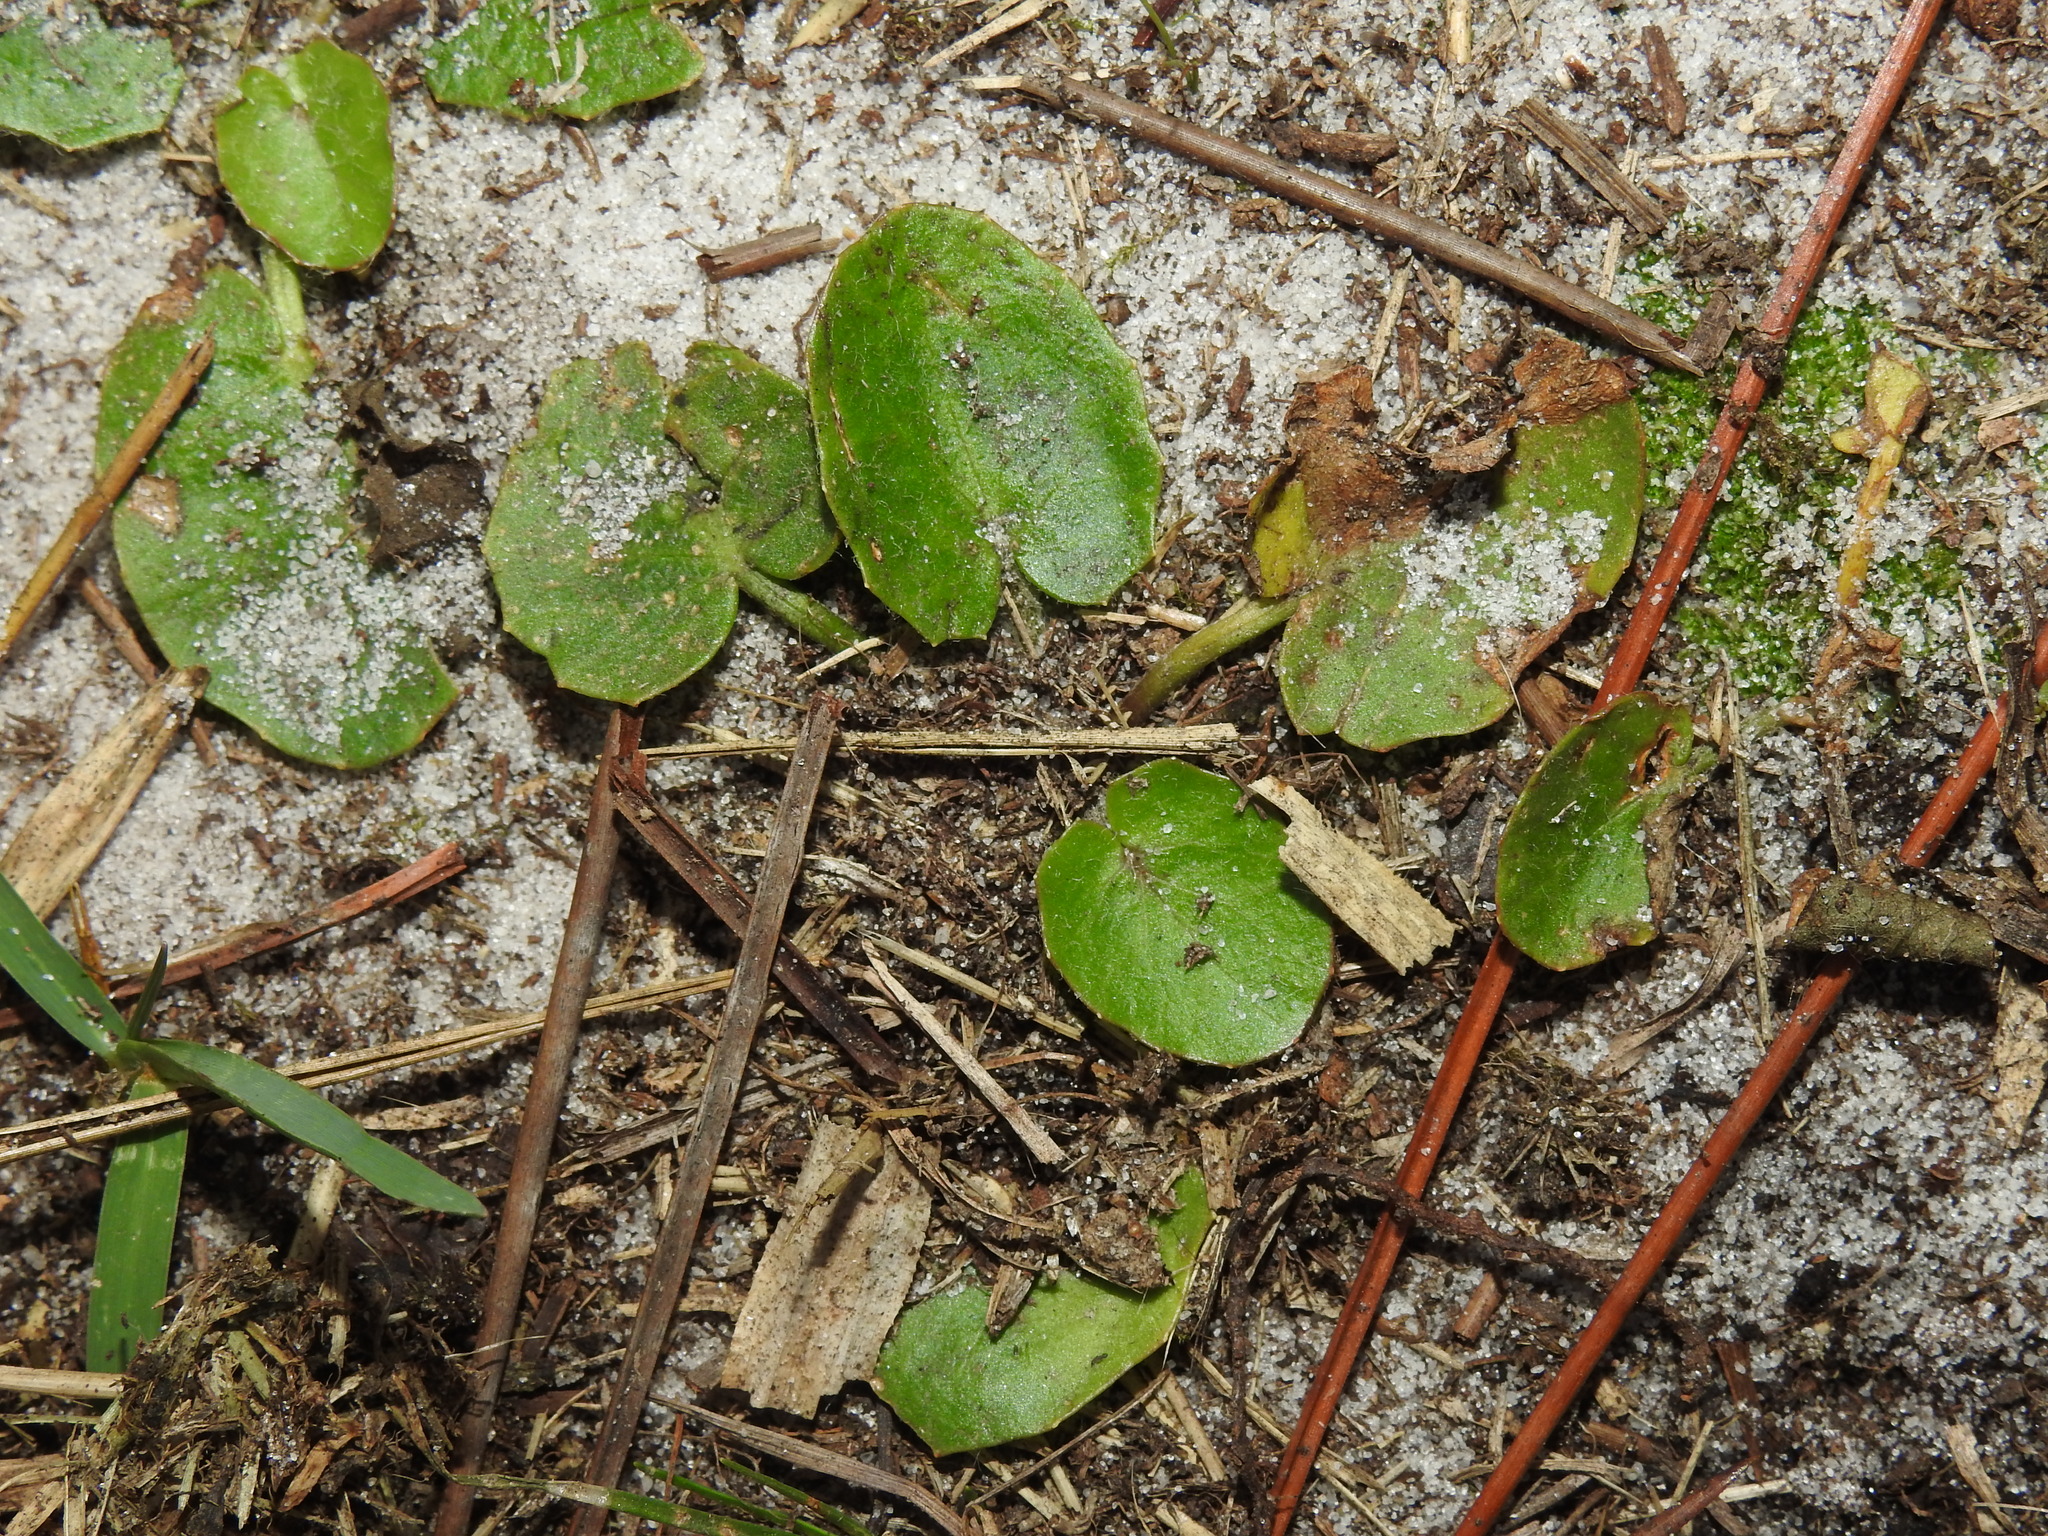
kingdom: Plantae
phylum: Tracheophyta
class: Magnoliopsida
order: Apiales
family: Apiaceae
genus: Centella
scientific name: Centella erecta
